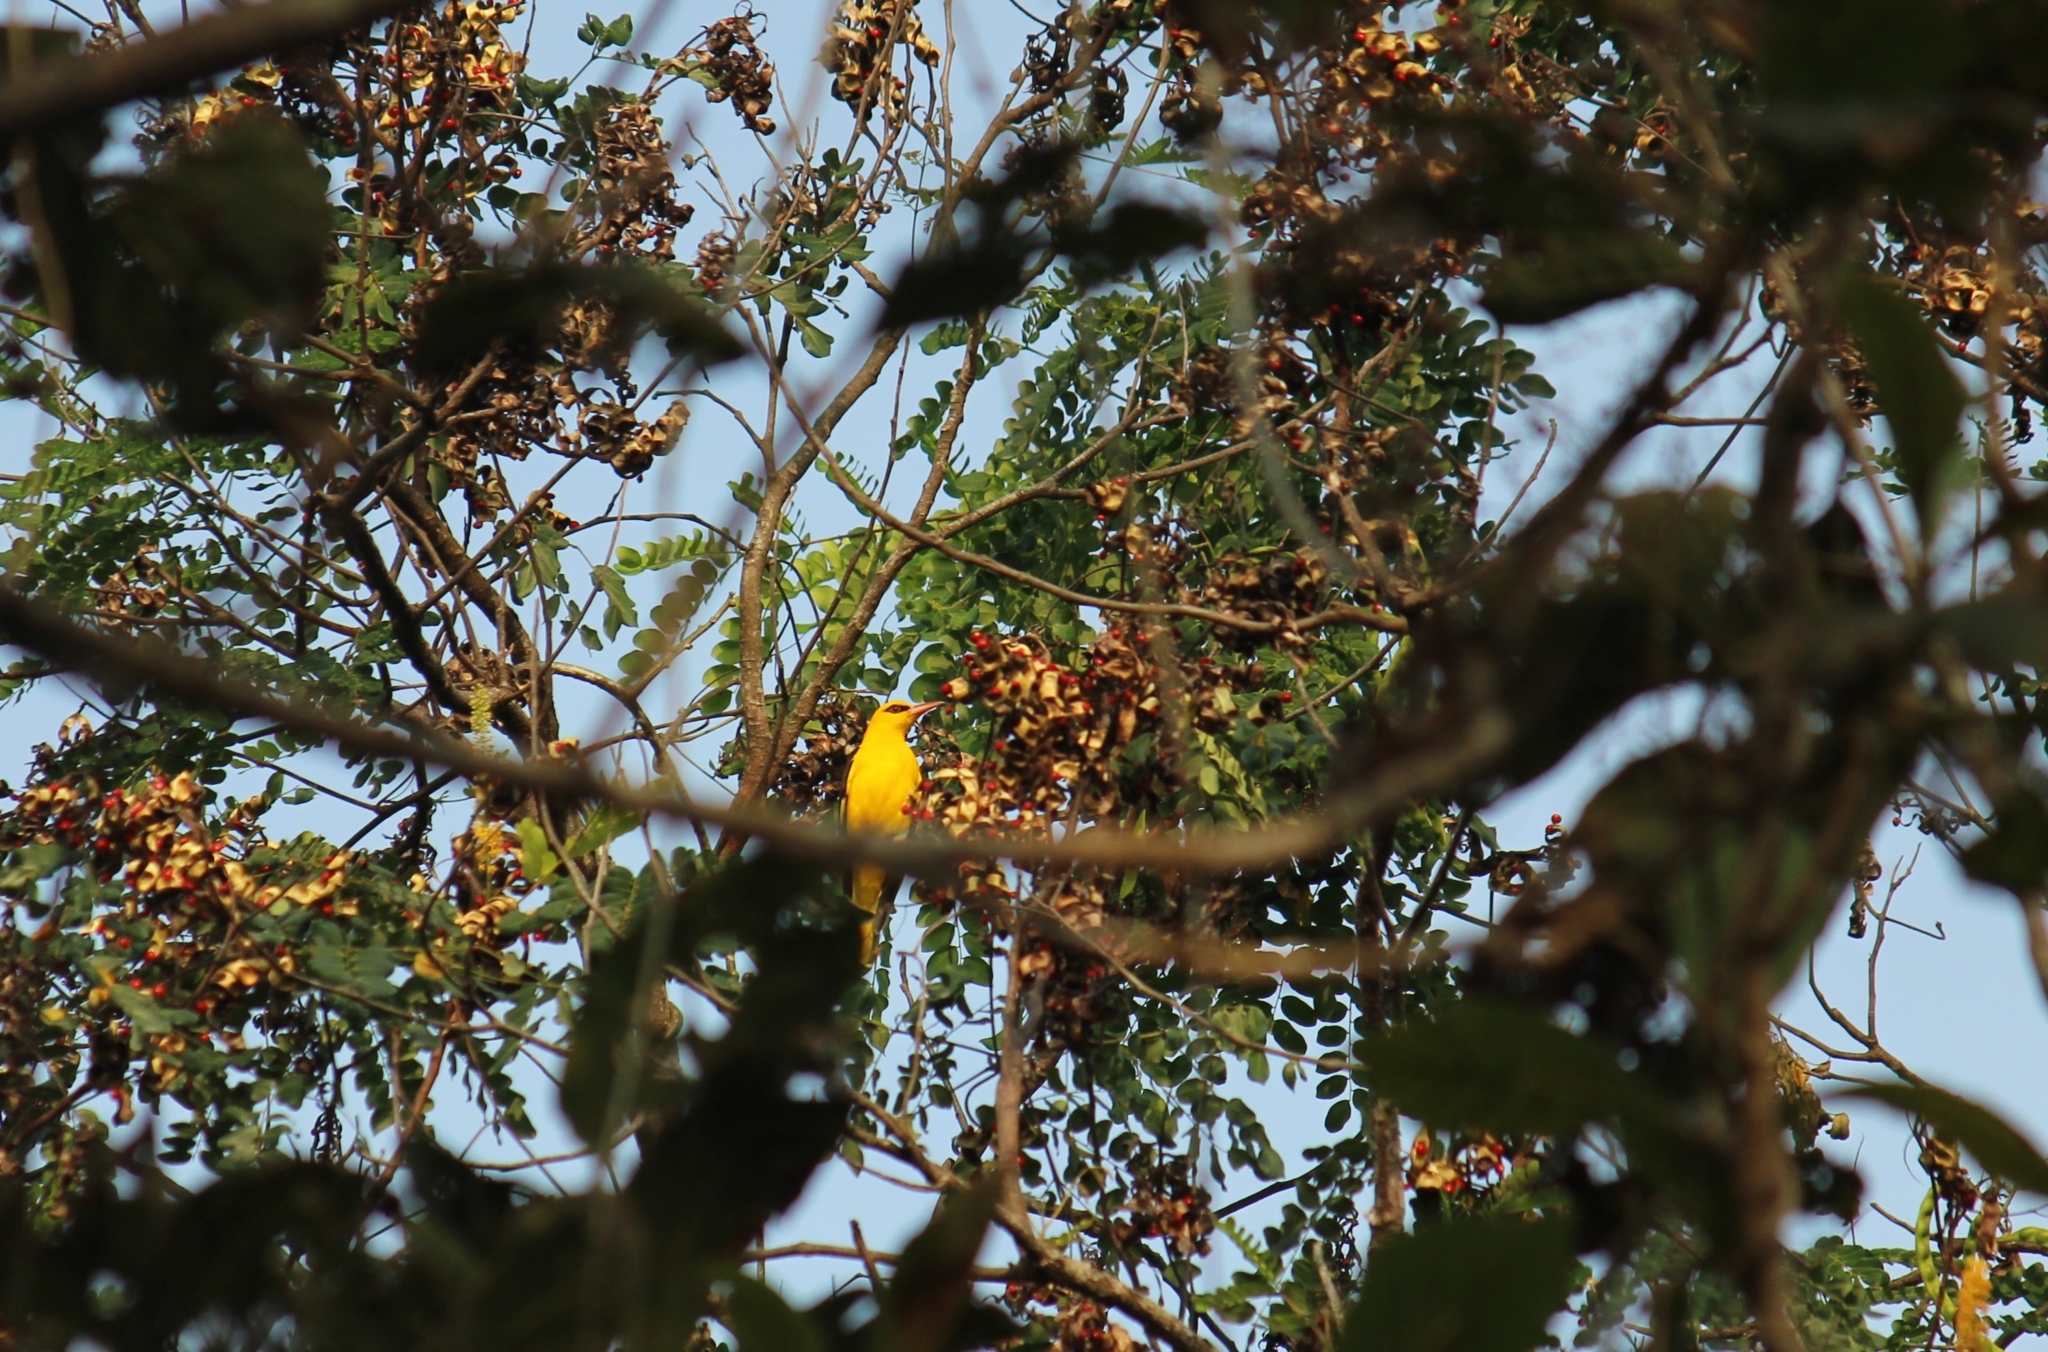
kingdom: Animalia
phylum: Chordata
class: Aves
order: Passeriformes
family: Oriolidae
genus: Oriolus
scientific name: Oriolus kundoo
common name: Indian golden oriole
